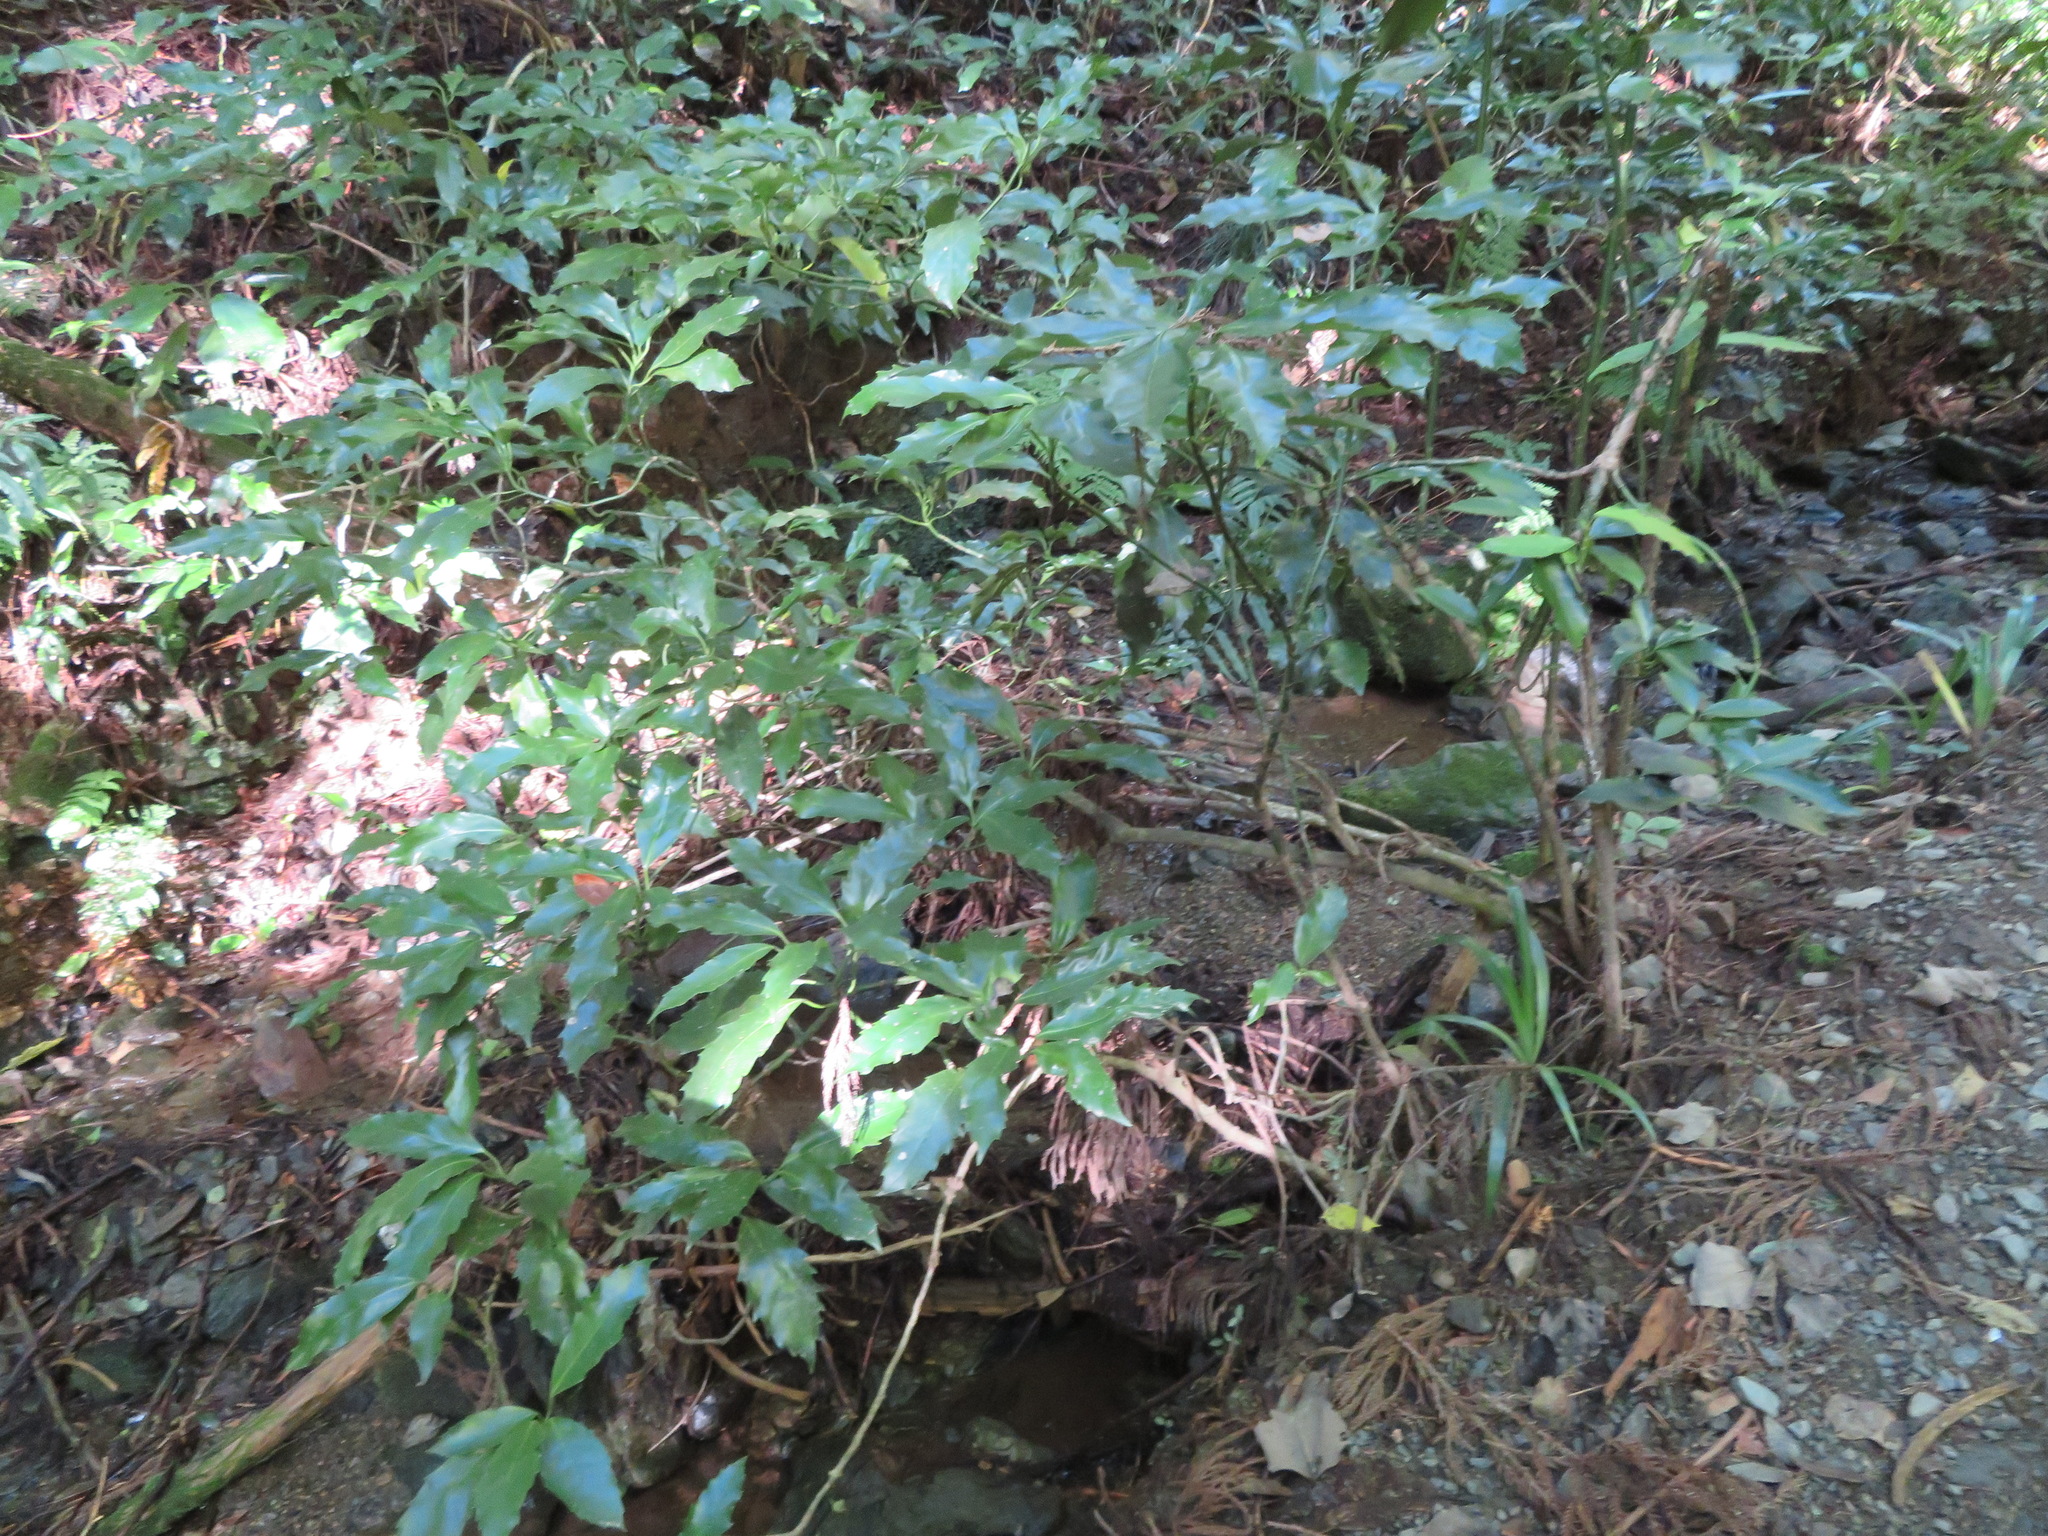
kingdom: Plantae
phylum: Tracheophyta
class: Magnoliopsida
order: Garryales
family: Garryaceae
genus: Aucuba
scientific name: Aucuba japonica
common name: Spotted-laurel
